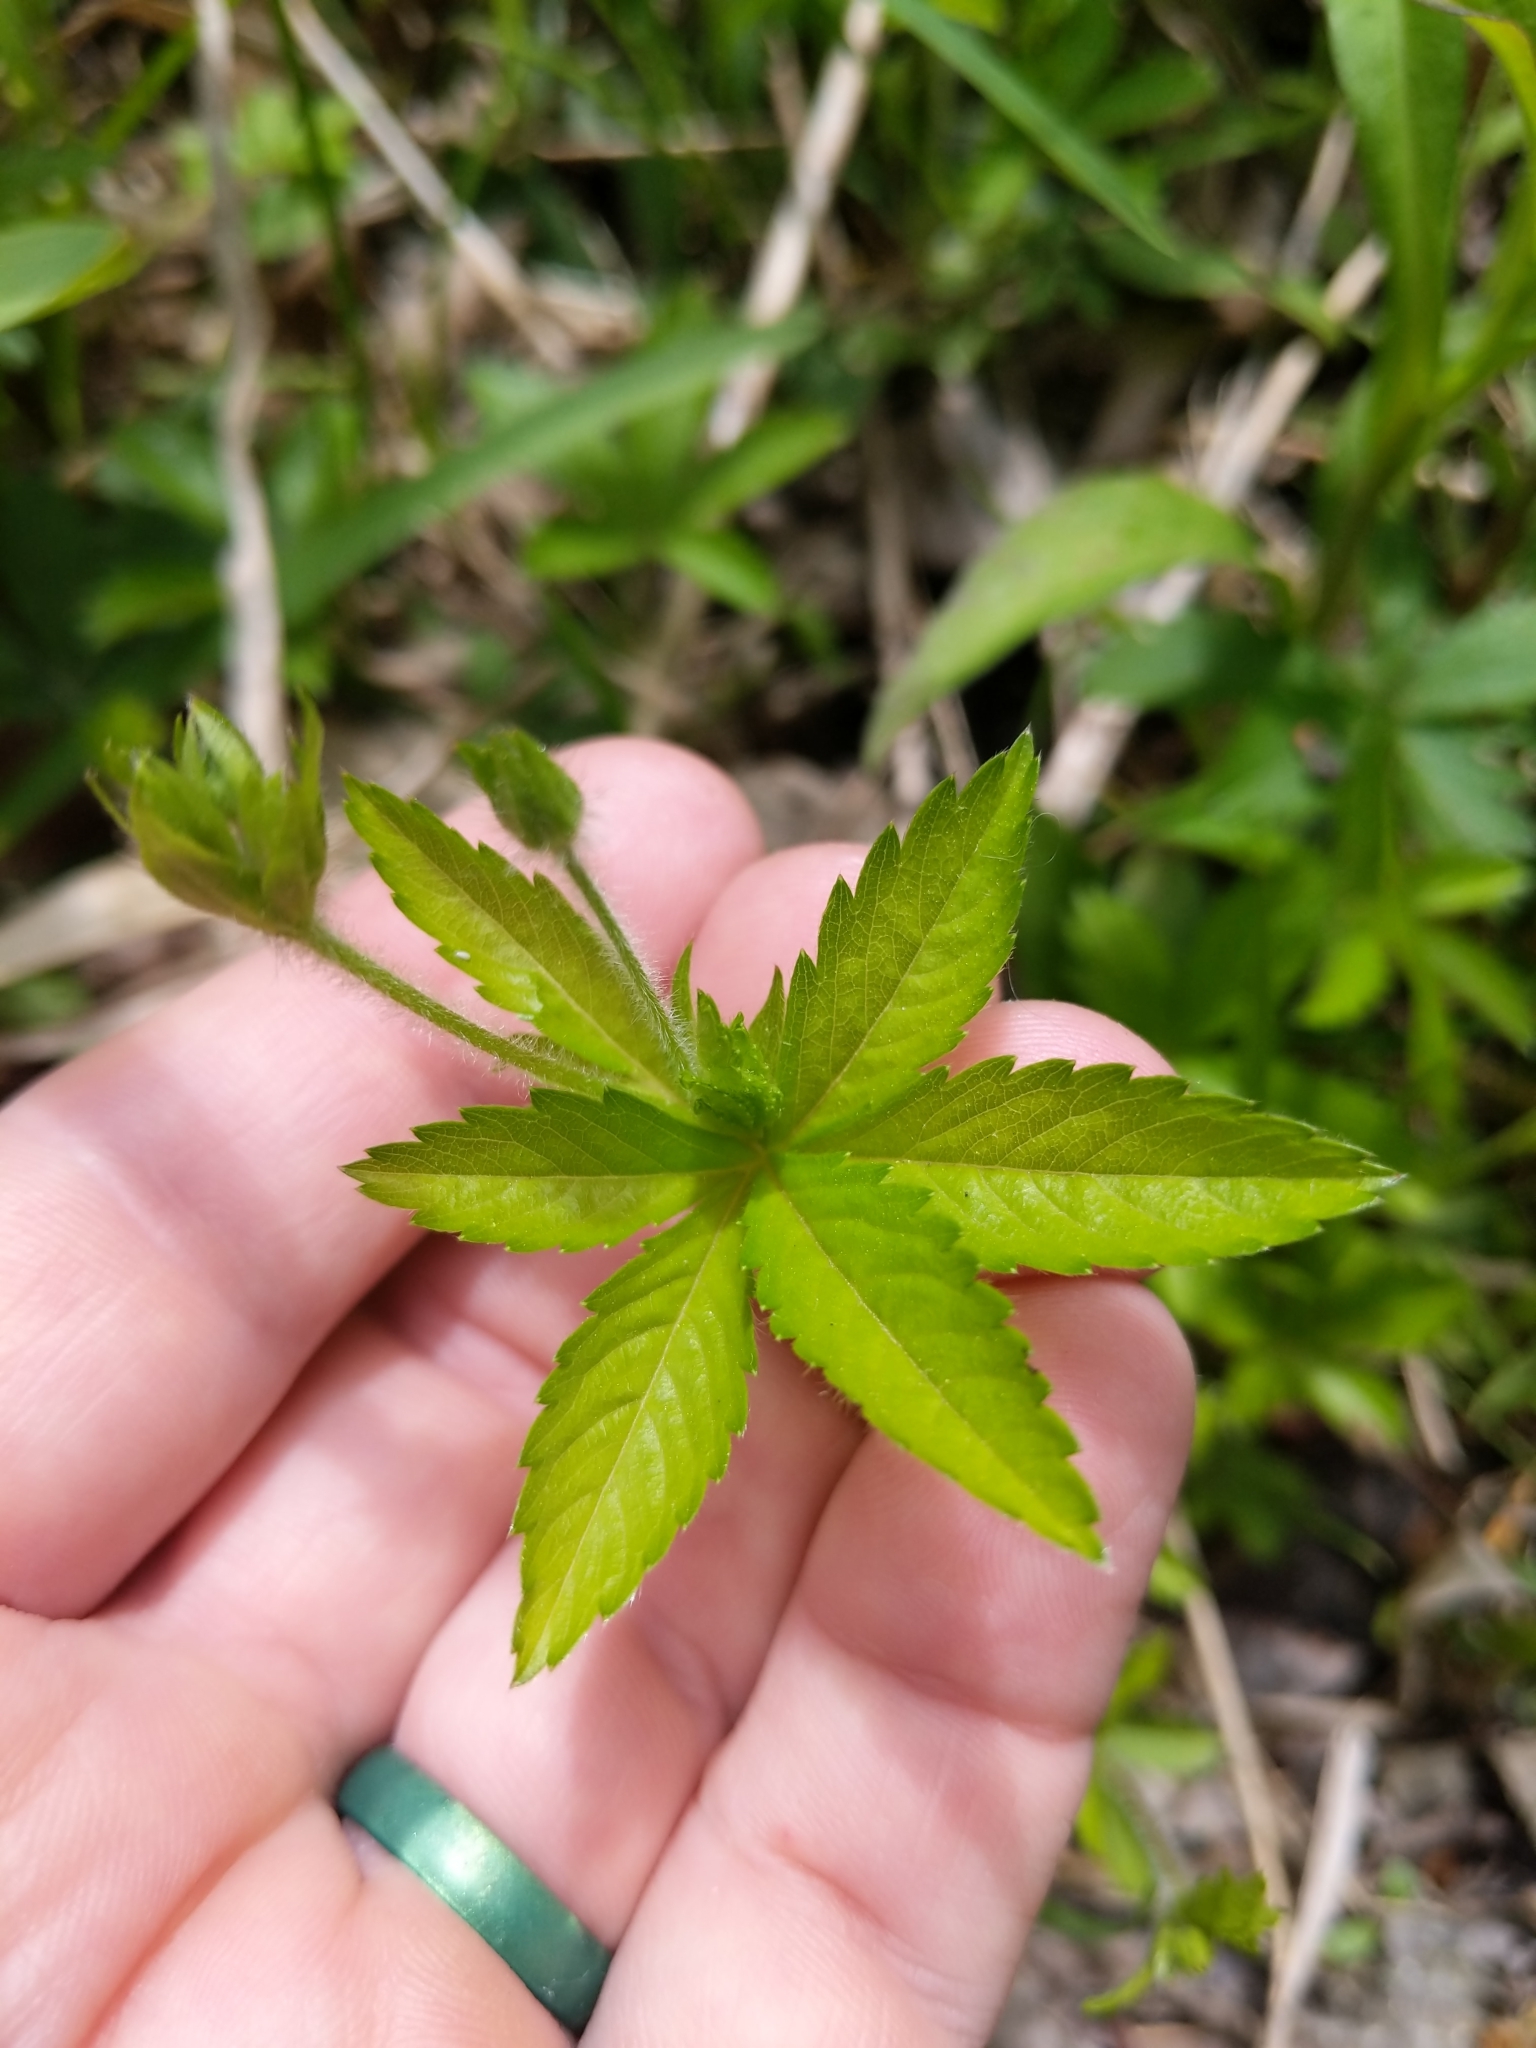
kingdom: Plantae
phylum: Tracheophyta
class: Magnoliopsida
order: Rosales
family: Rosaceae
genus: Potentilla
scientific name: Potentilla simplex
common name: Old field cinquefoil
